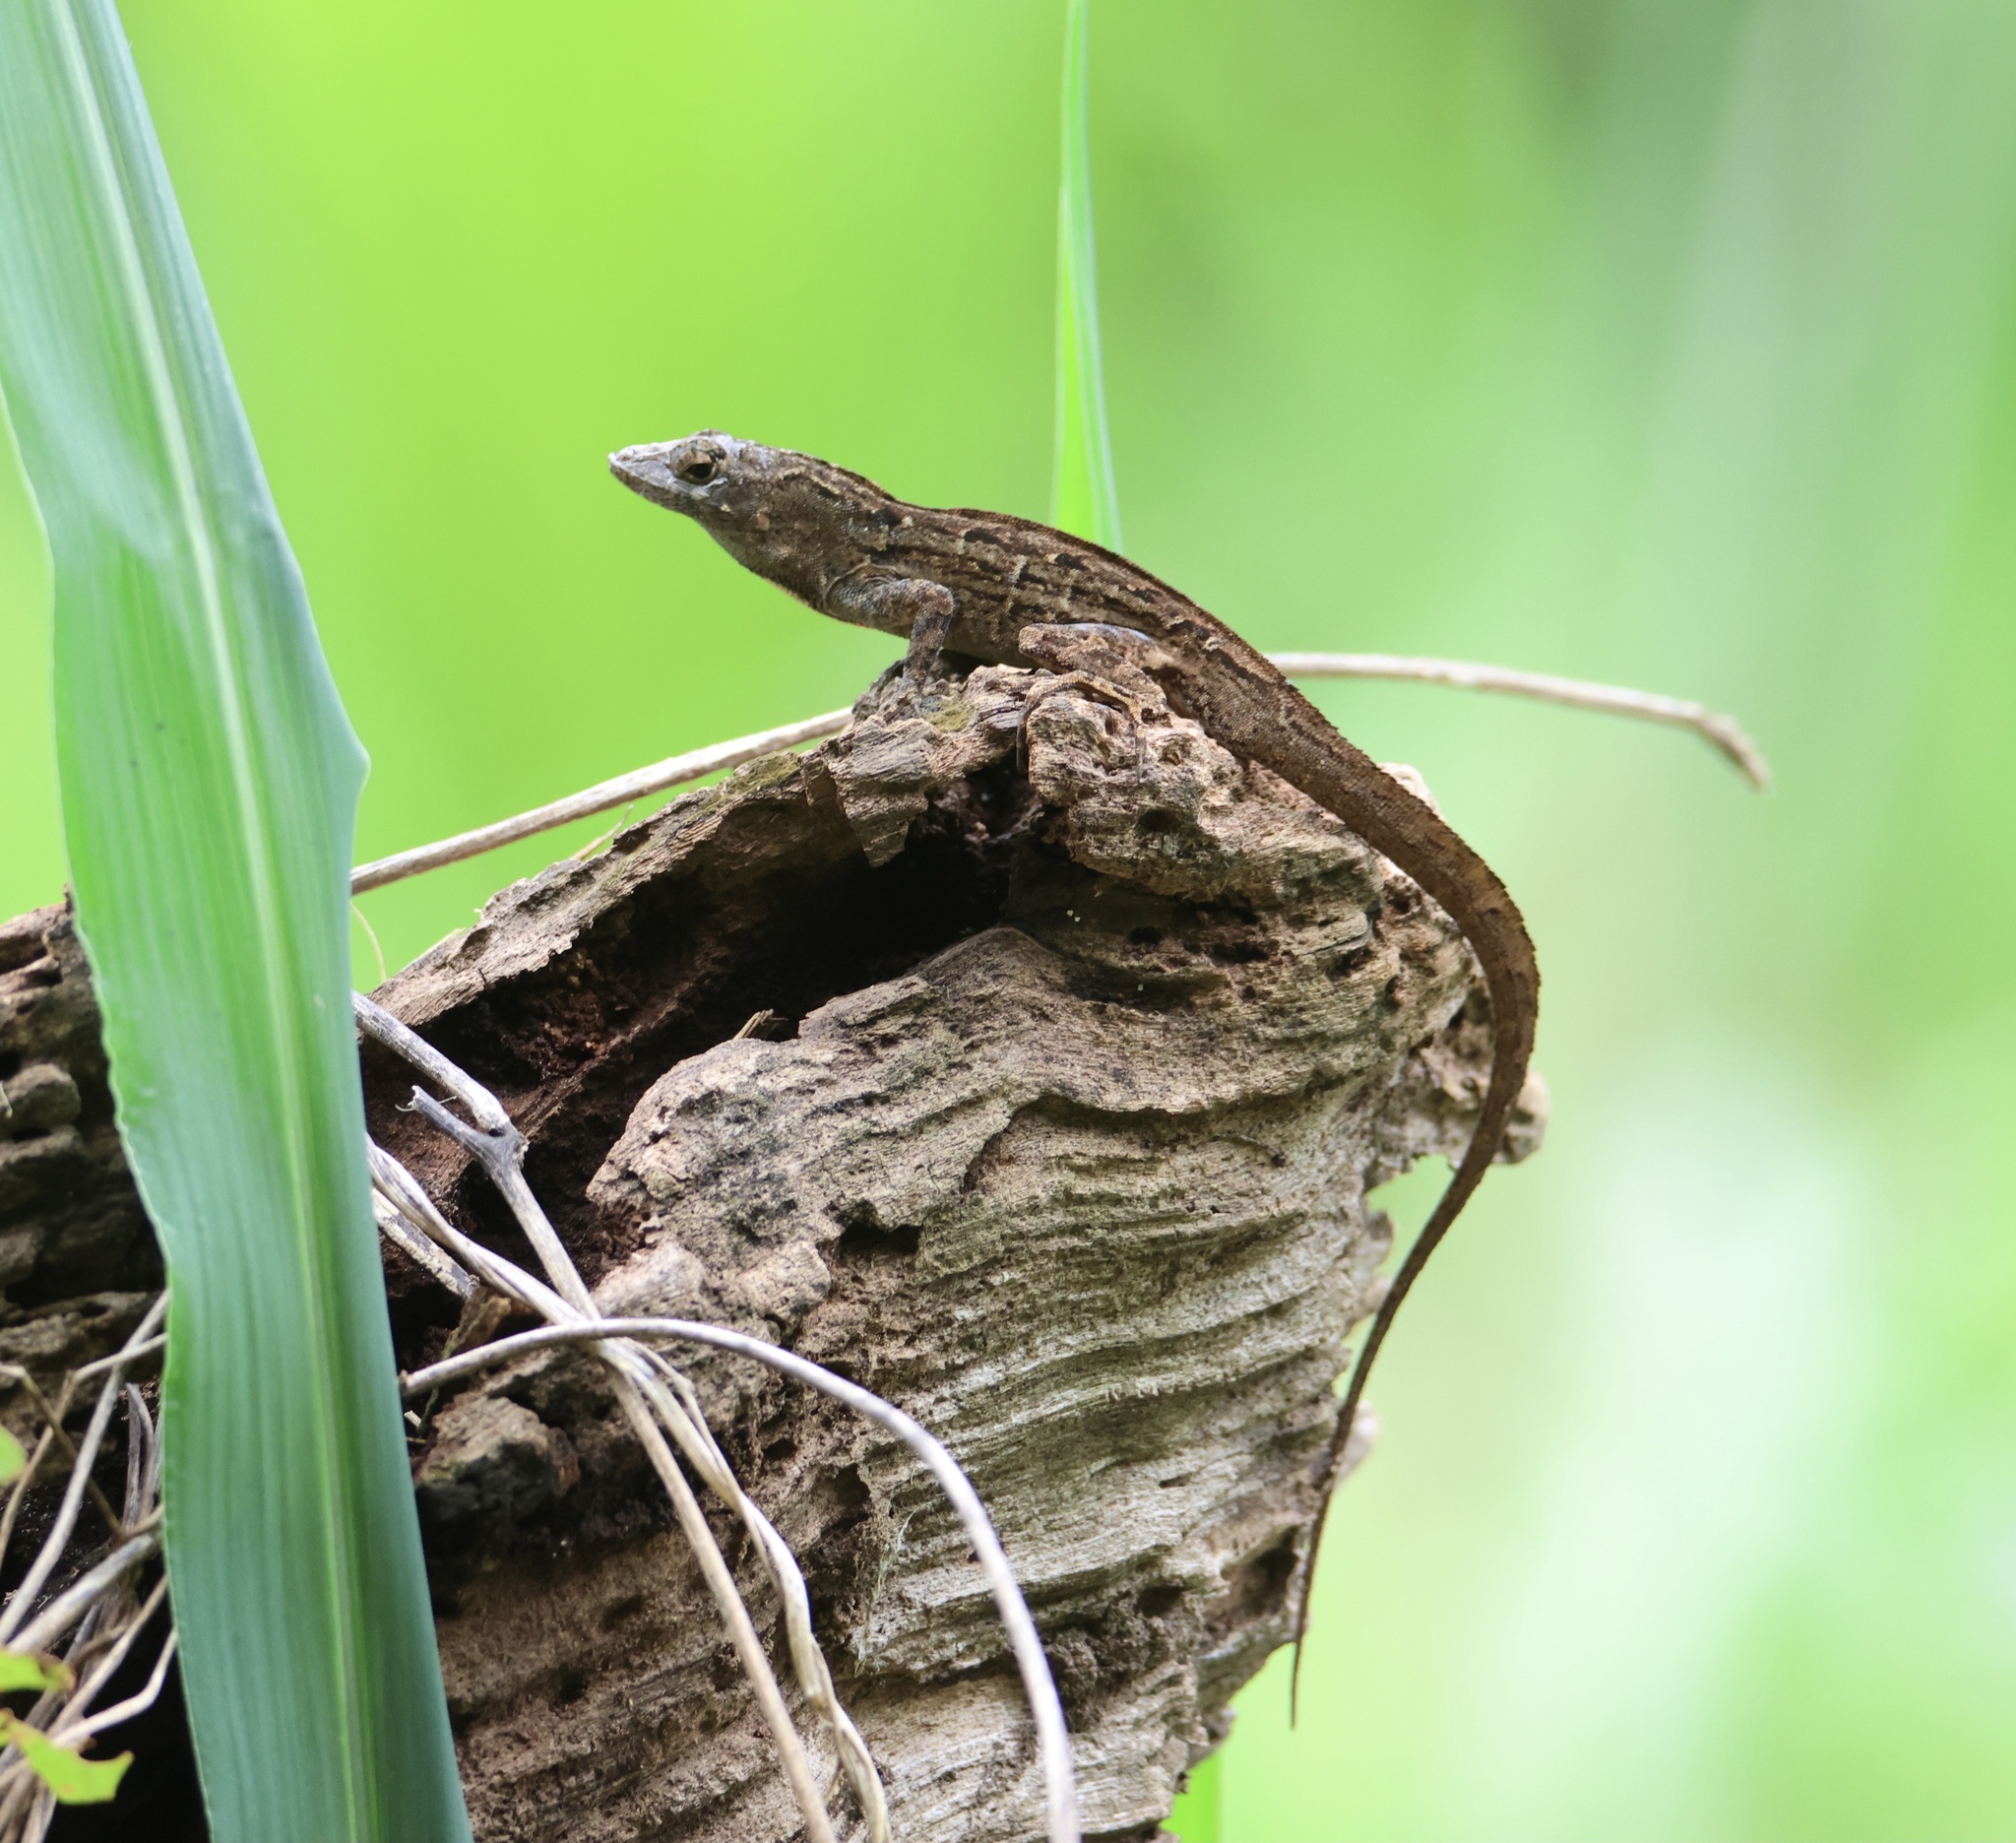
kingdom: Animalia
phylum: Chordata
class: Squamata
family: Dactyloidae
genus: Anolis
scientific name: Anolis sagrei
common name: Brown anole
